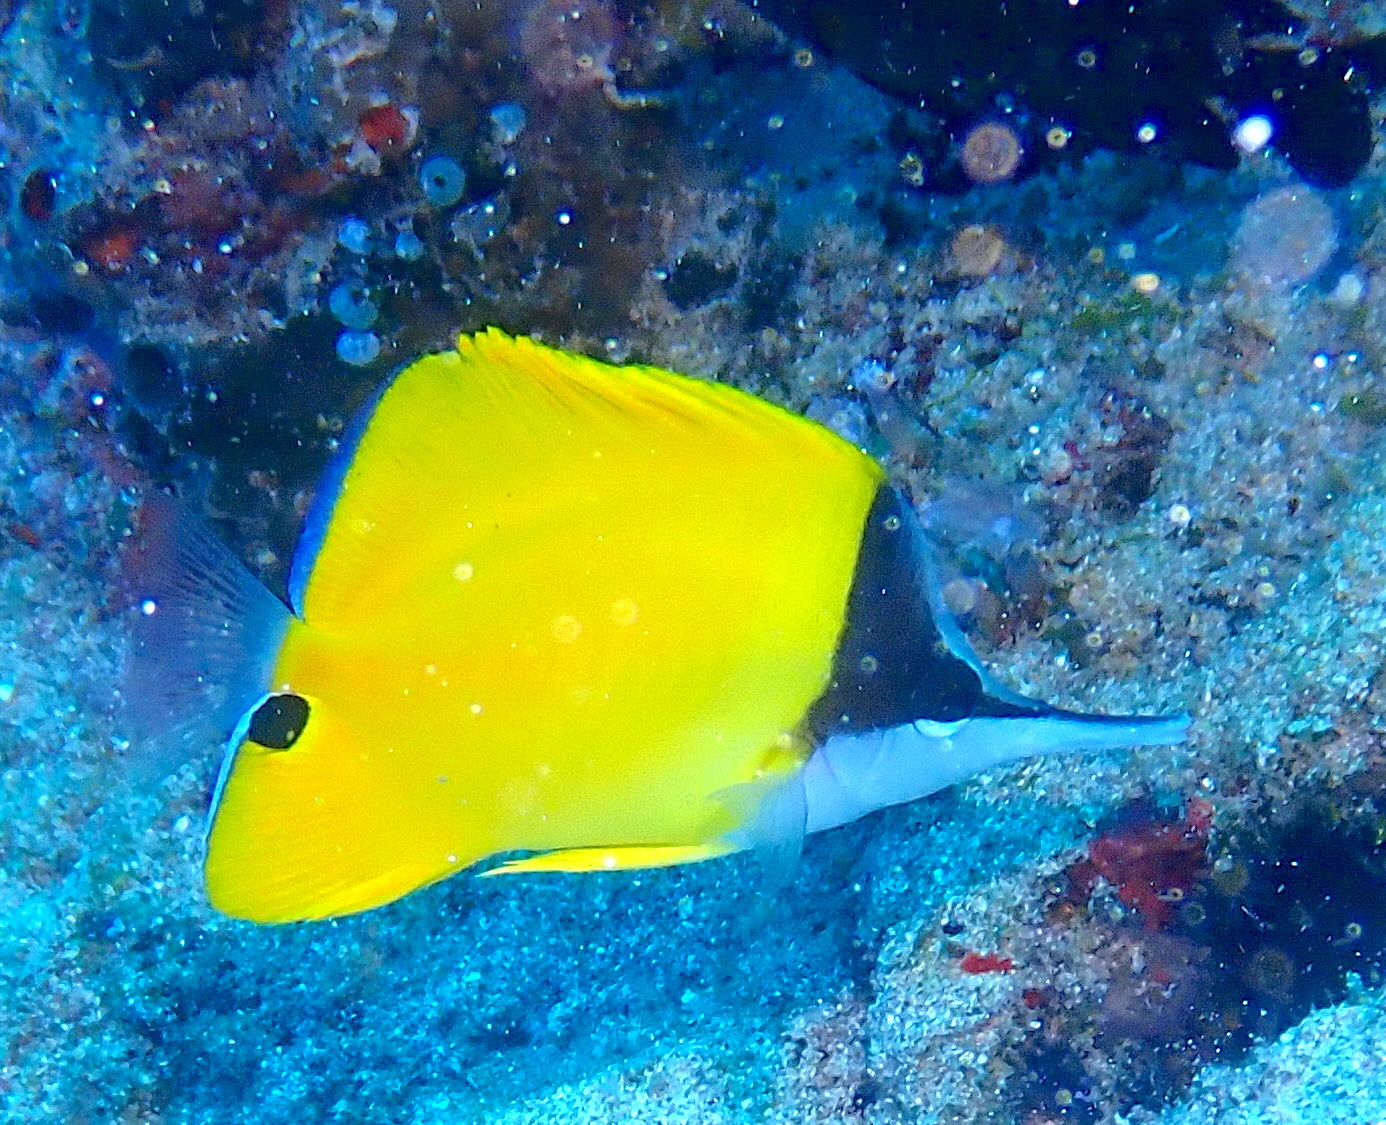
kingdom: Animalia
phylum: Chordata
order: Perciformes
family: Chaetodontidae
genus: Forcipiger
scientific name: Forcipiger flavissimus
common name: Forcepsfish
